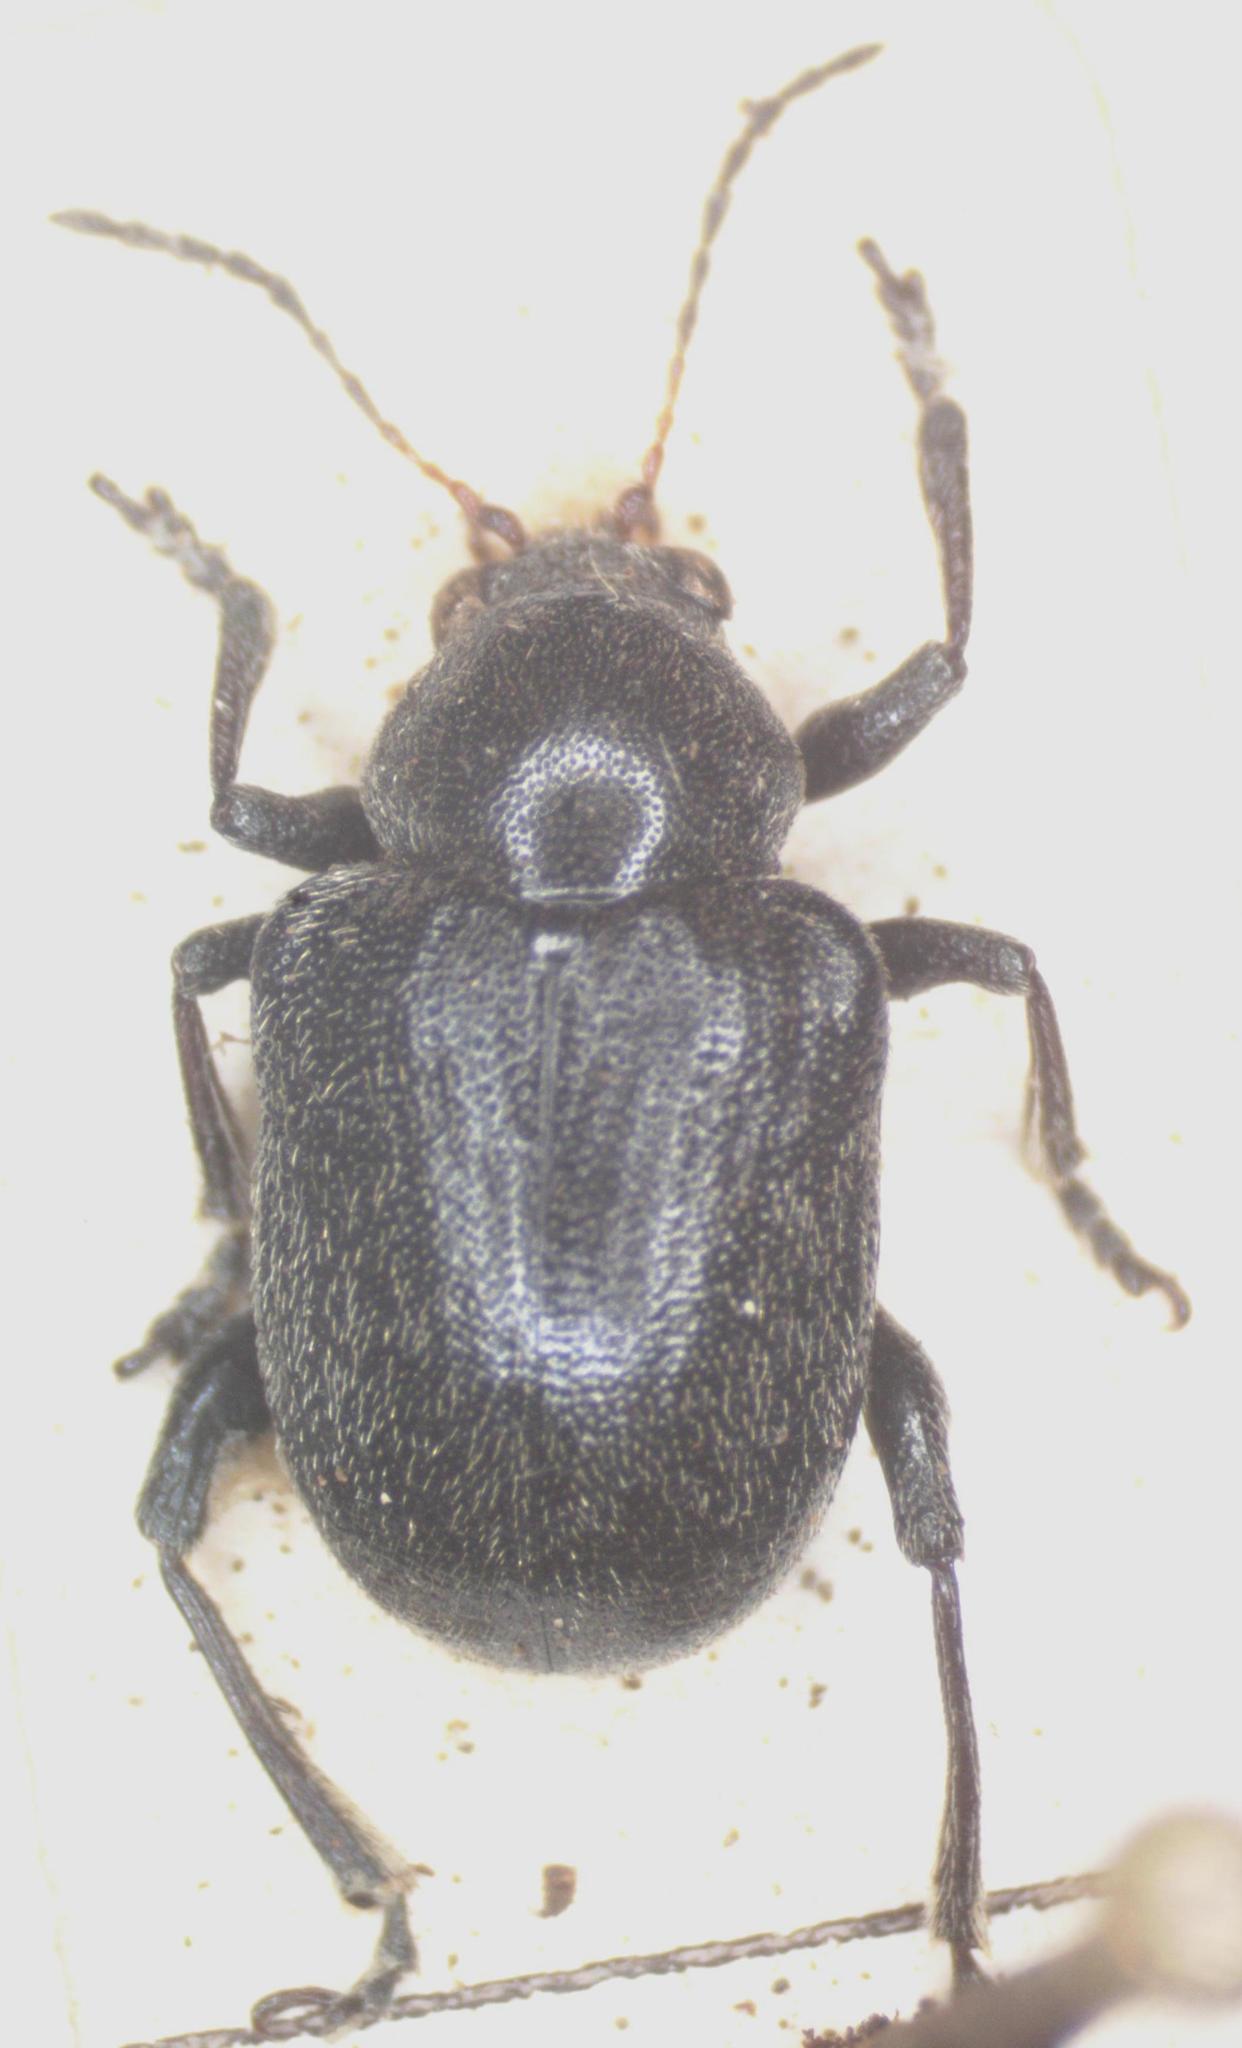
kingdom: Animalia
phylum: Arthropoda
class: Insecta
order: Coleoptera
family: Chrysomelidae
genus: Bromius
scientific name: Bromius obscurus
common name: Western grape rootworm
